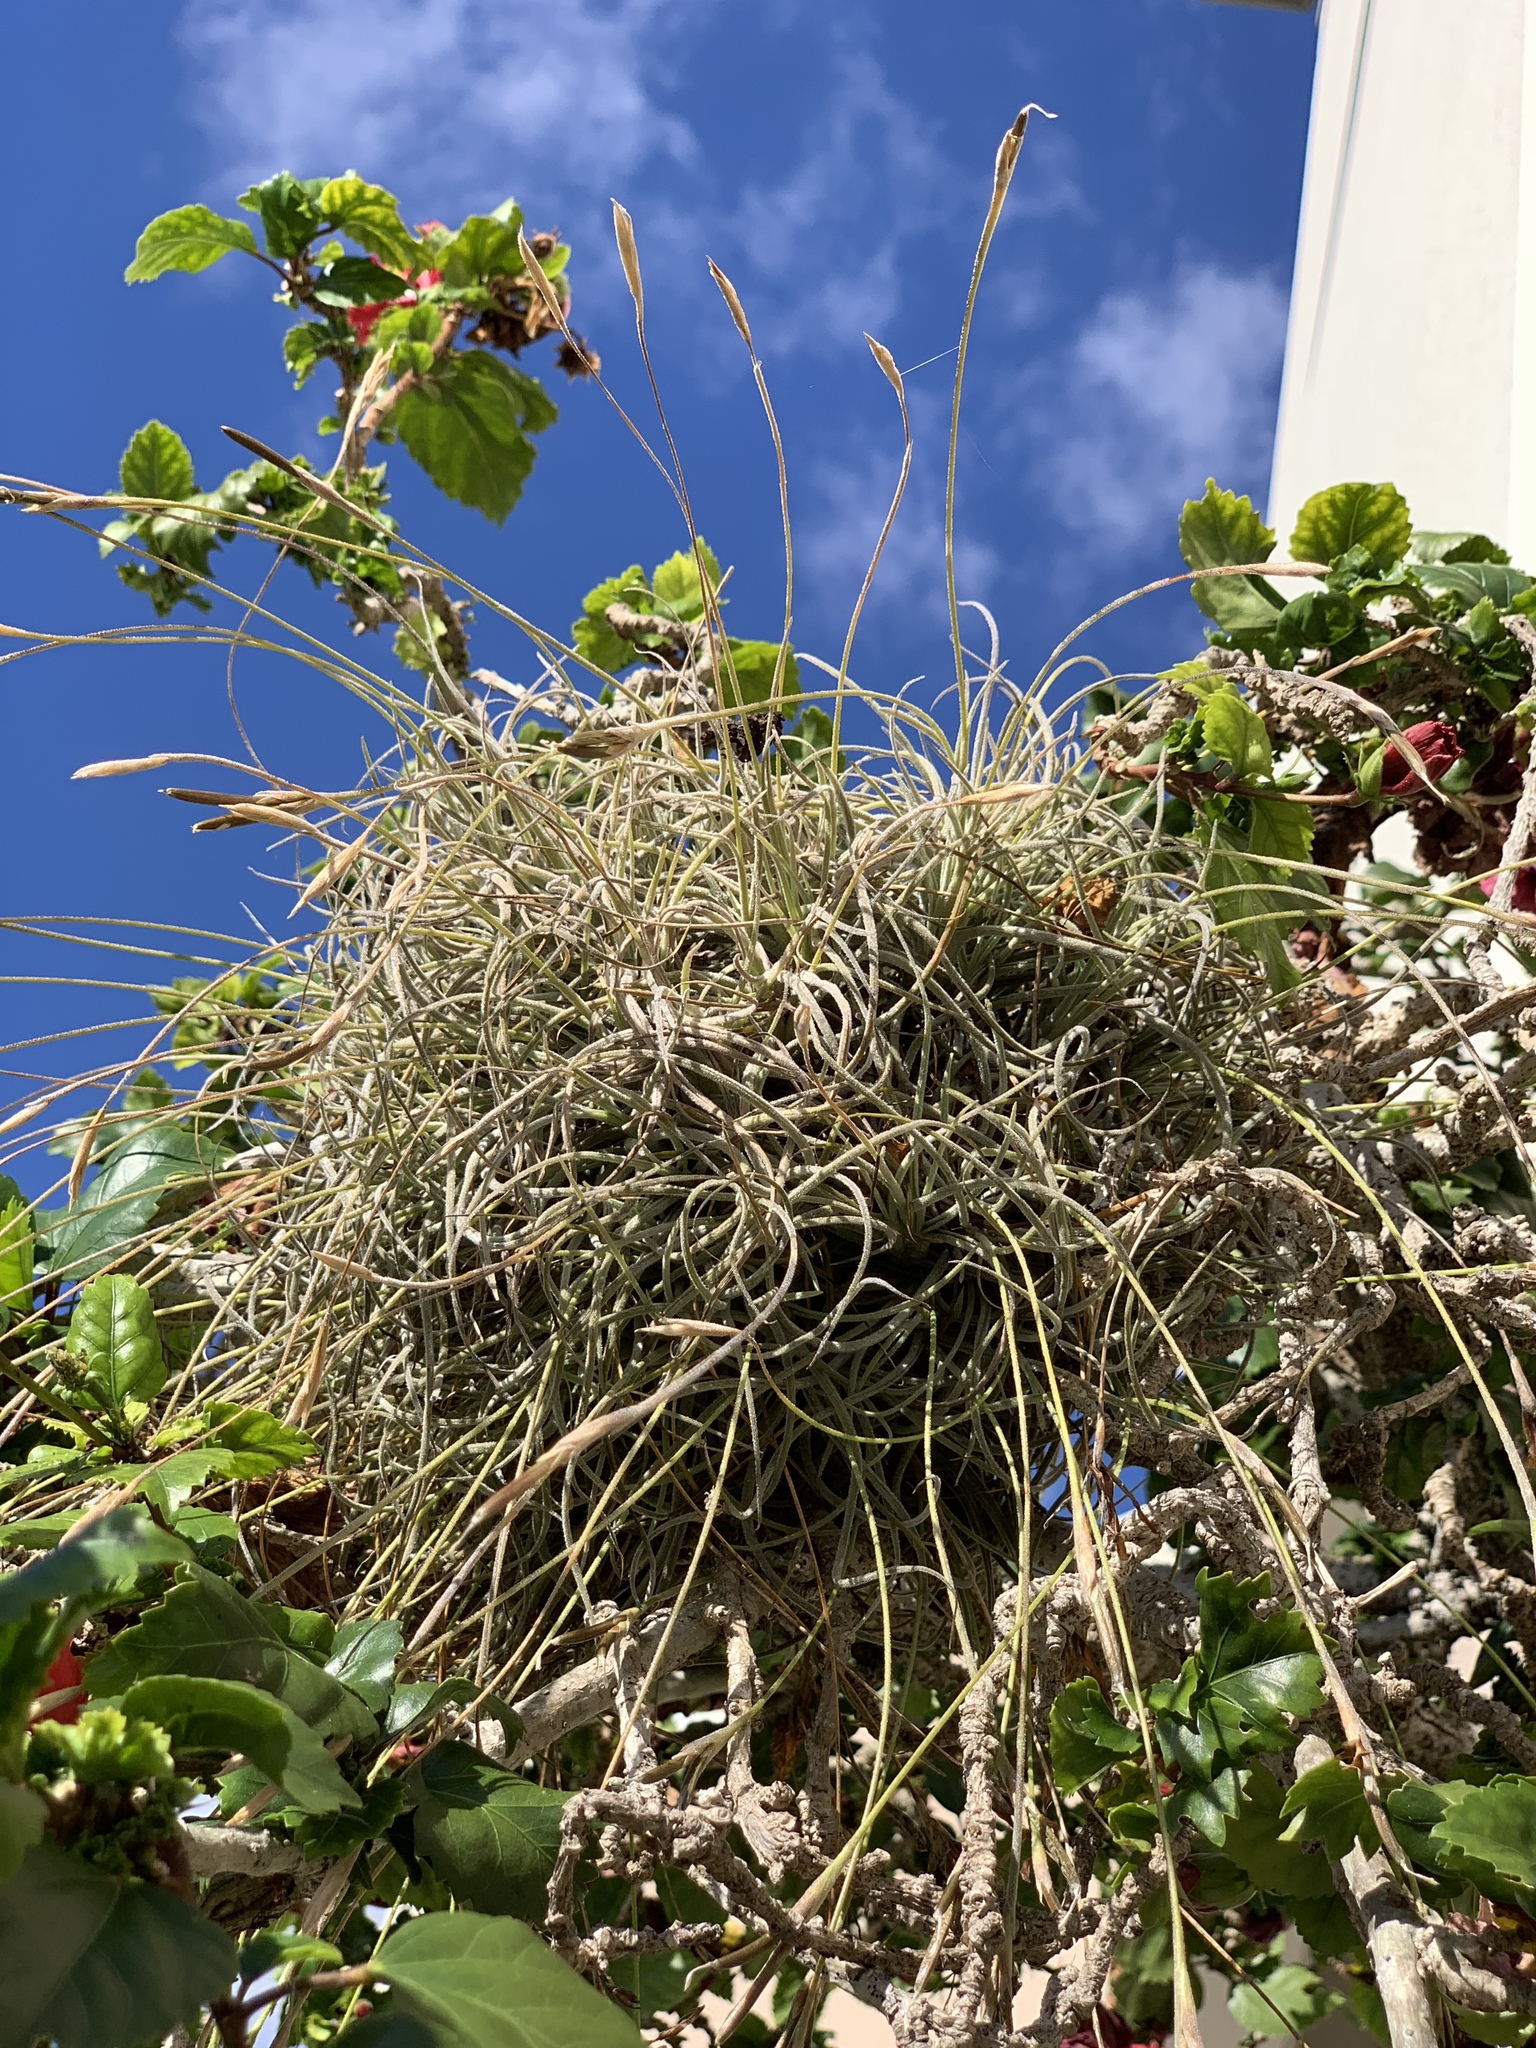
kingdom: Plantae
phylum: Tracheophyta
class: Liliopsida
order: Poales
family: Bromeliaceae
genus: Tillandsia
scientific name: Tillandsia recurvata
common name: Small ballmoss
